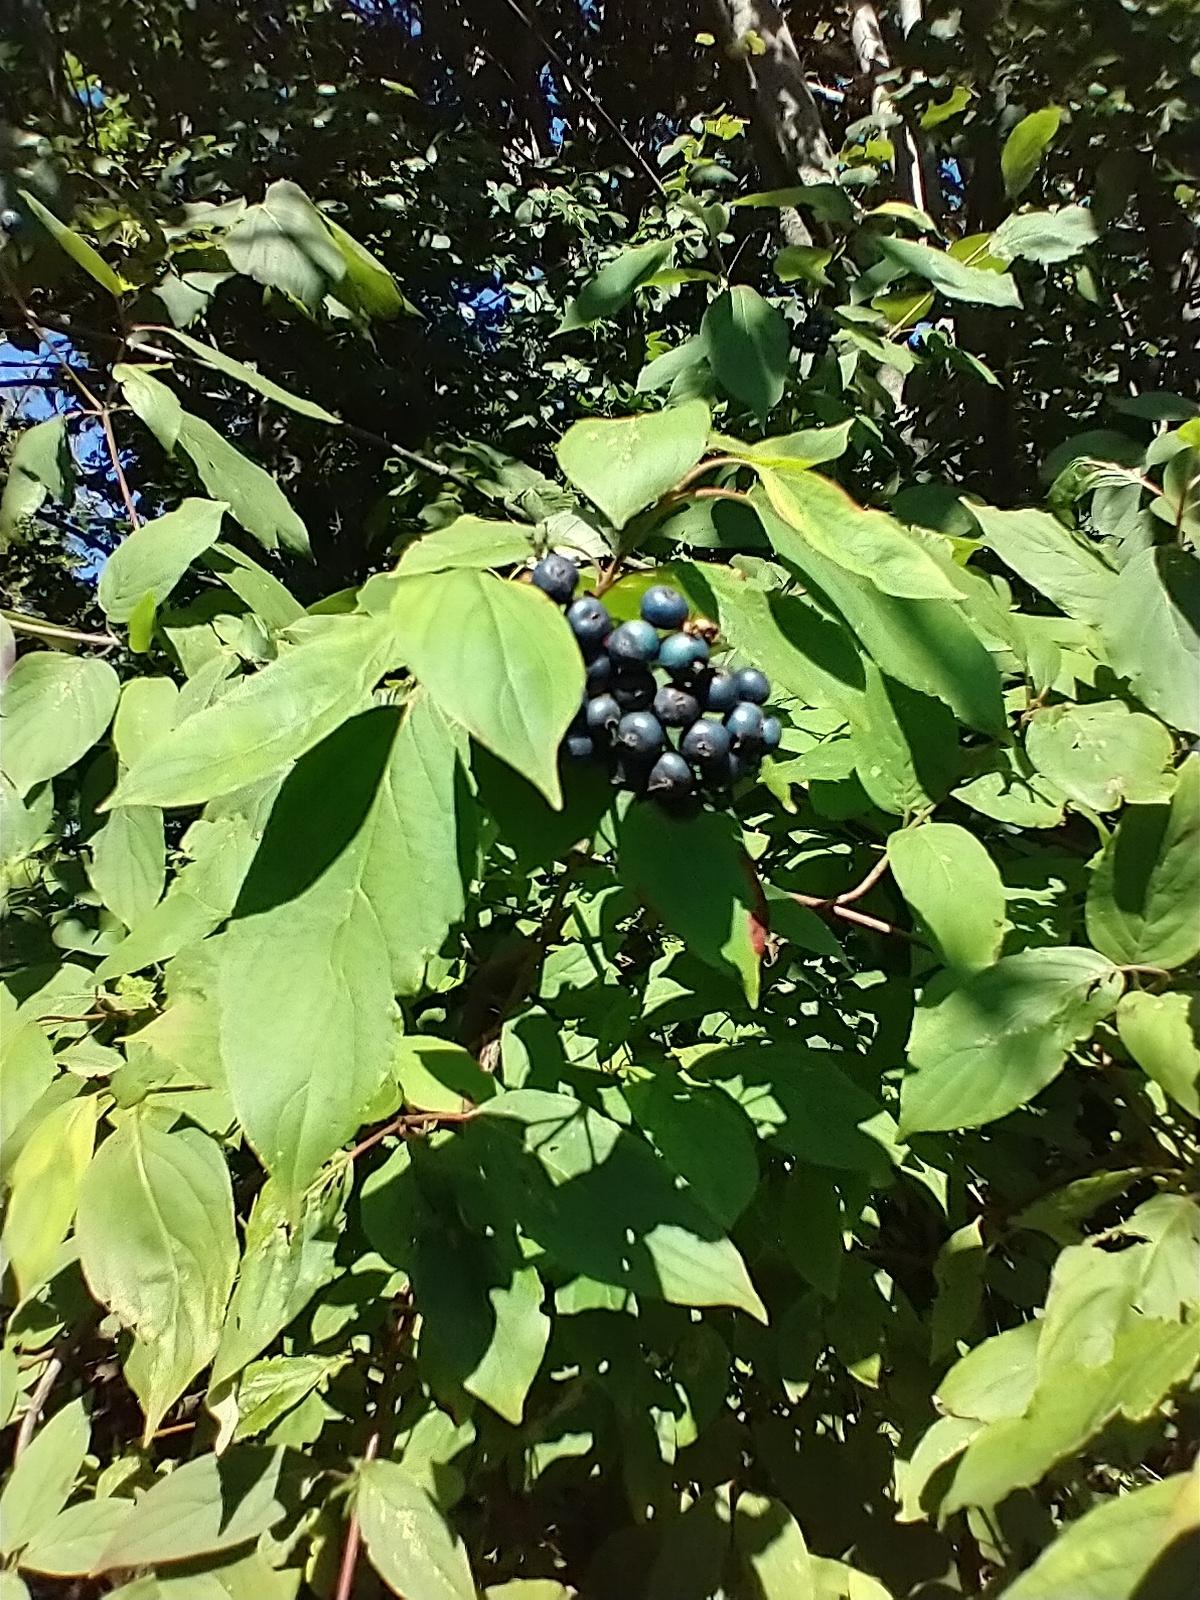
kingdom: Plantae
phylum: Tracheophyta
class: Magnoliopsida
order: Cornales
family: Cornaceae
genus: Cornus
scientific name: Cornus amomum
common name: Silky dogwood
